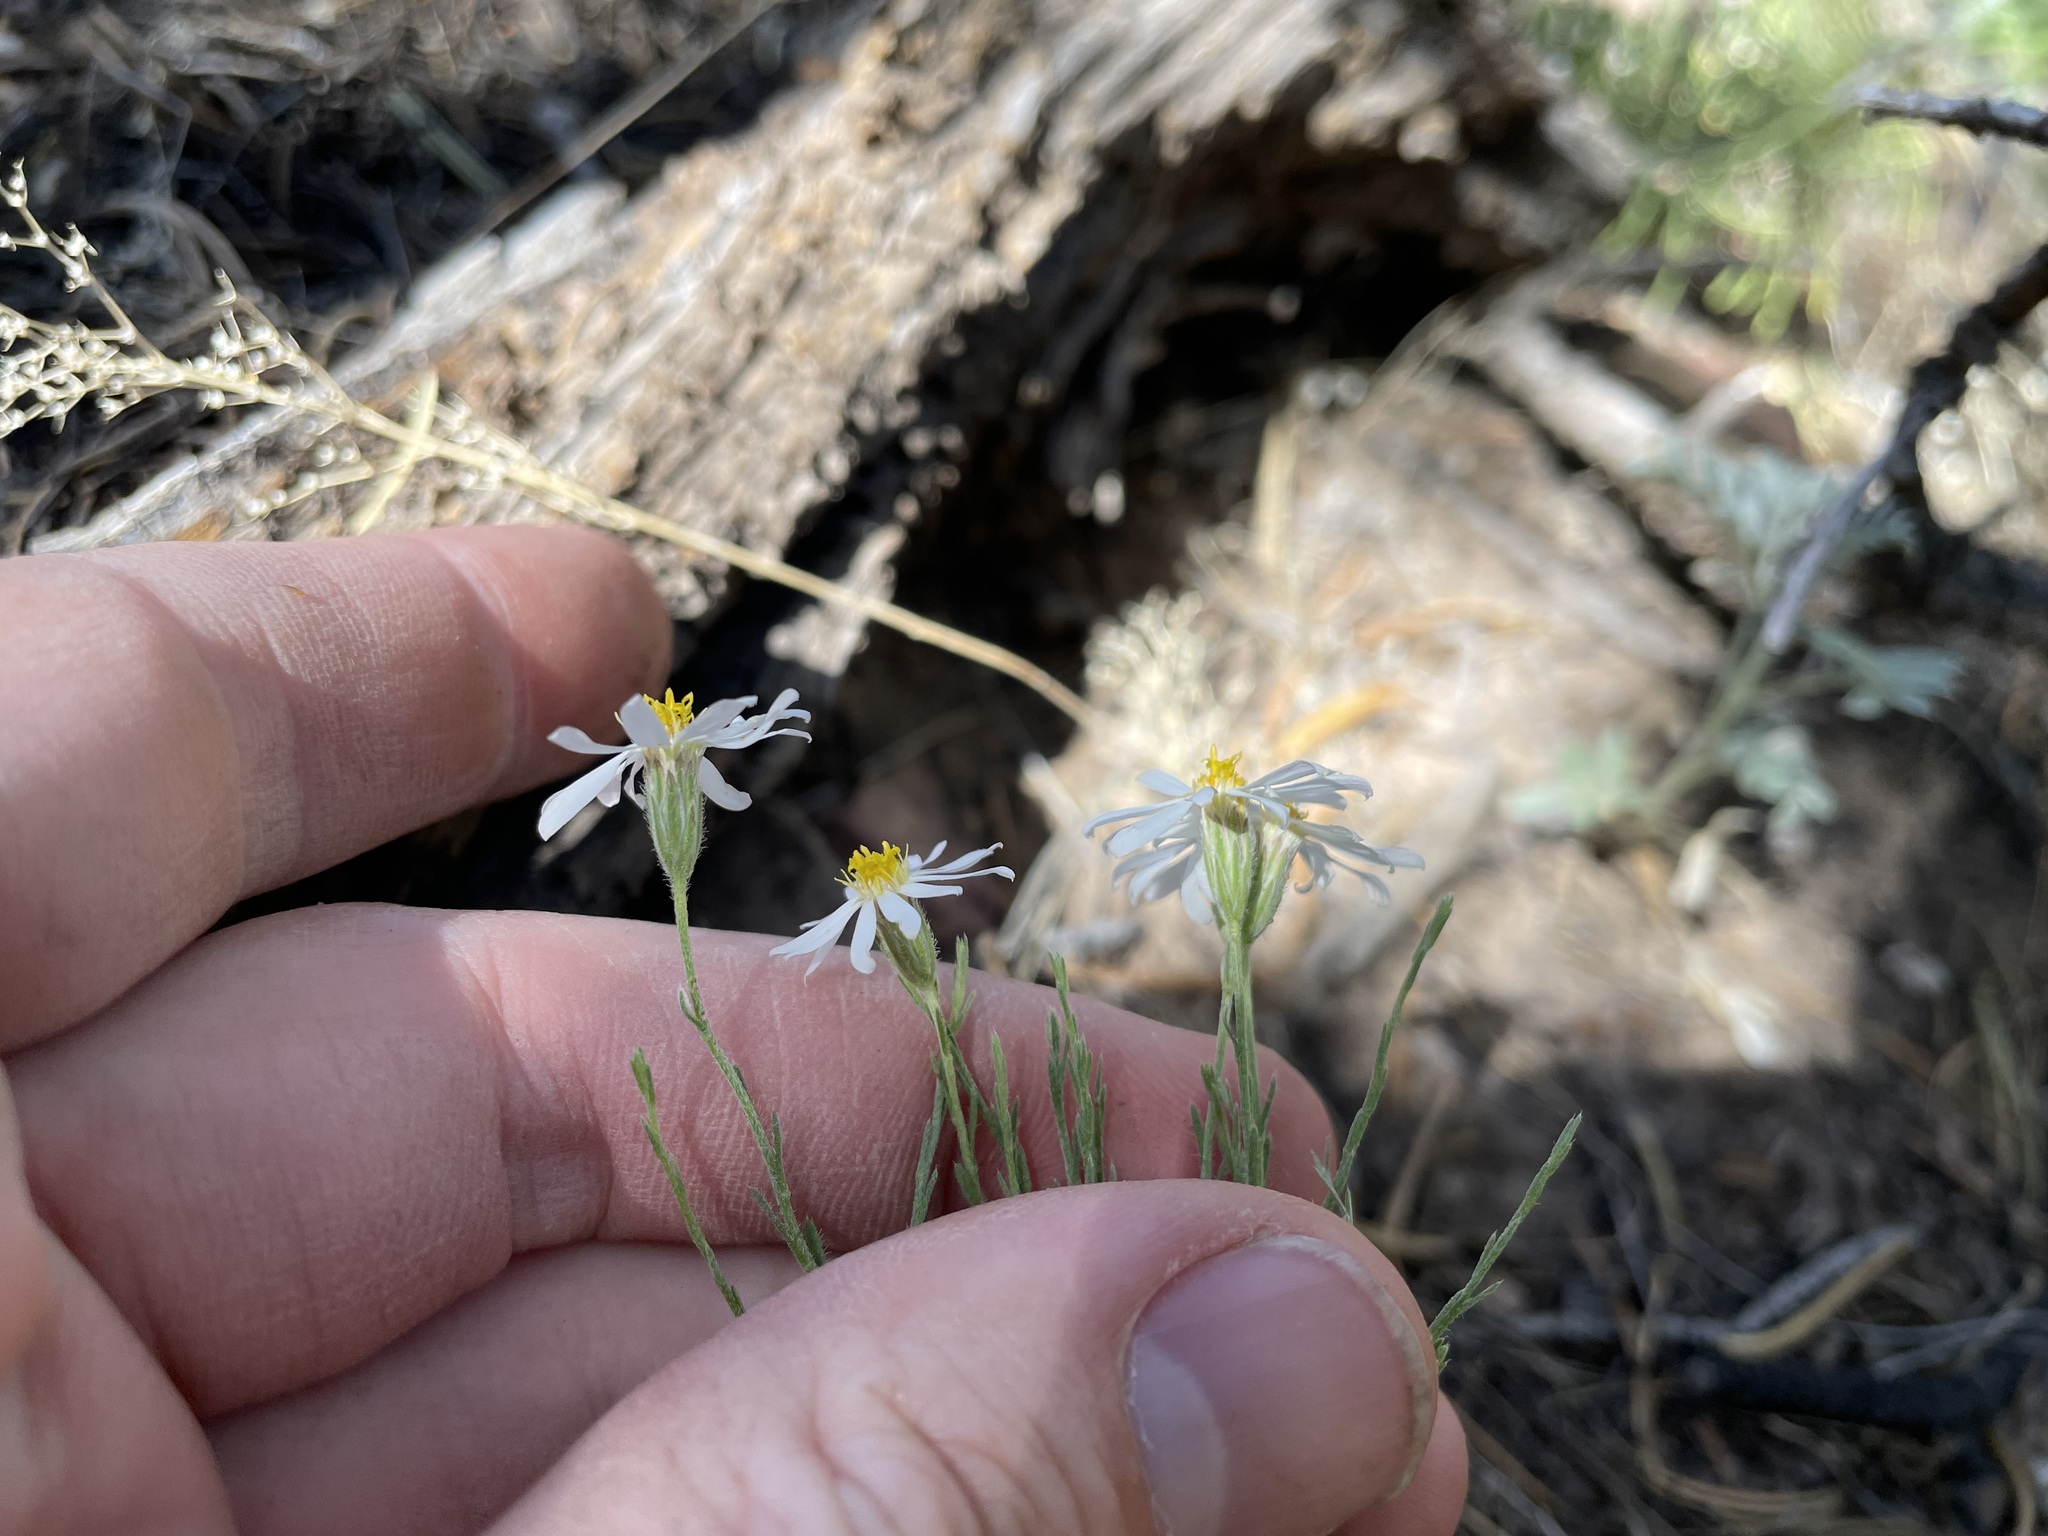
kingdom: Plantae
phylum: Tracheophyta
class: Magnoliopsida
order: Asterales
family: Asteraceae
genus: Chaetopappa
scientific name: Chaetopappa ericoides
